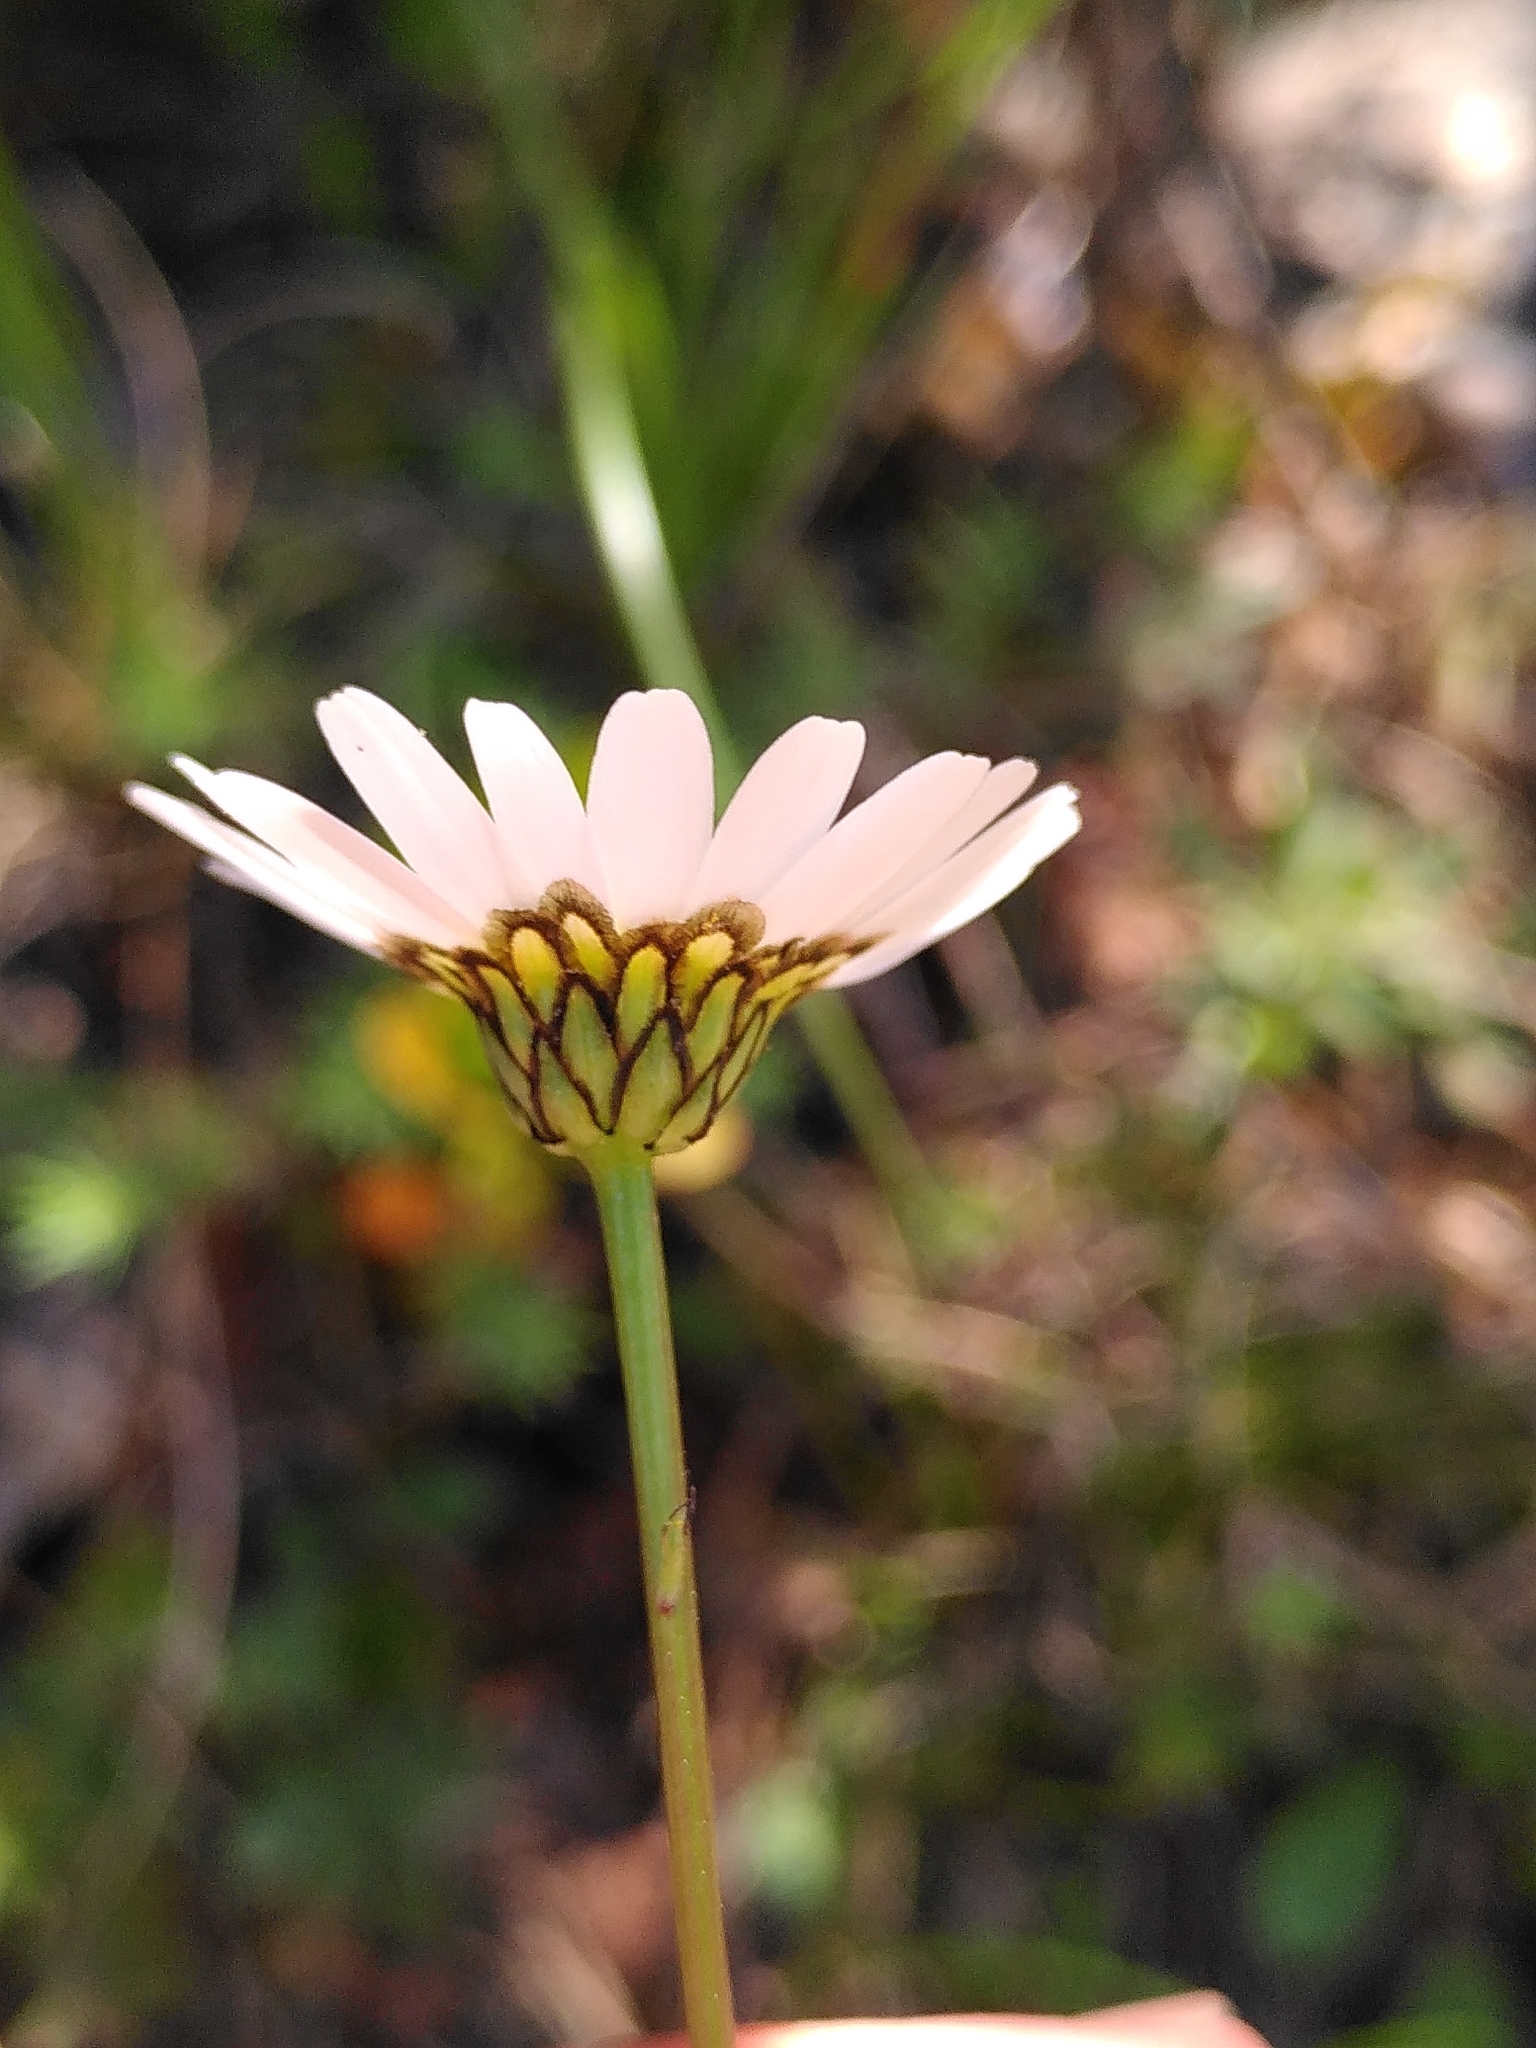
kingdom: Plantae
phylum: Tracheophyta
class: Magnoliopsida
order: Asterales
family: Asteraceae
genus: Leucanthemum
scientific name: Leucanthemum graminifolium
